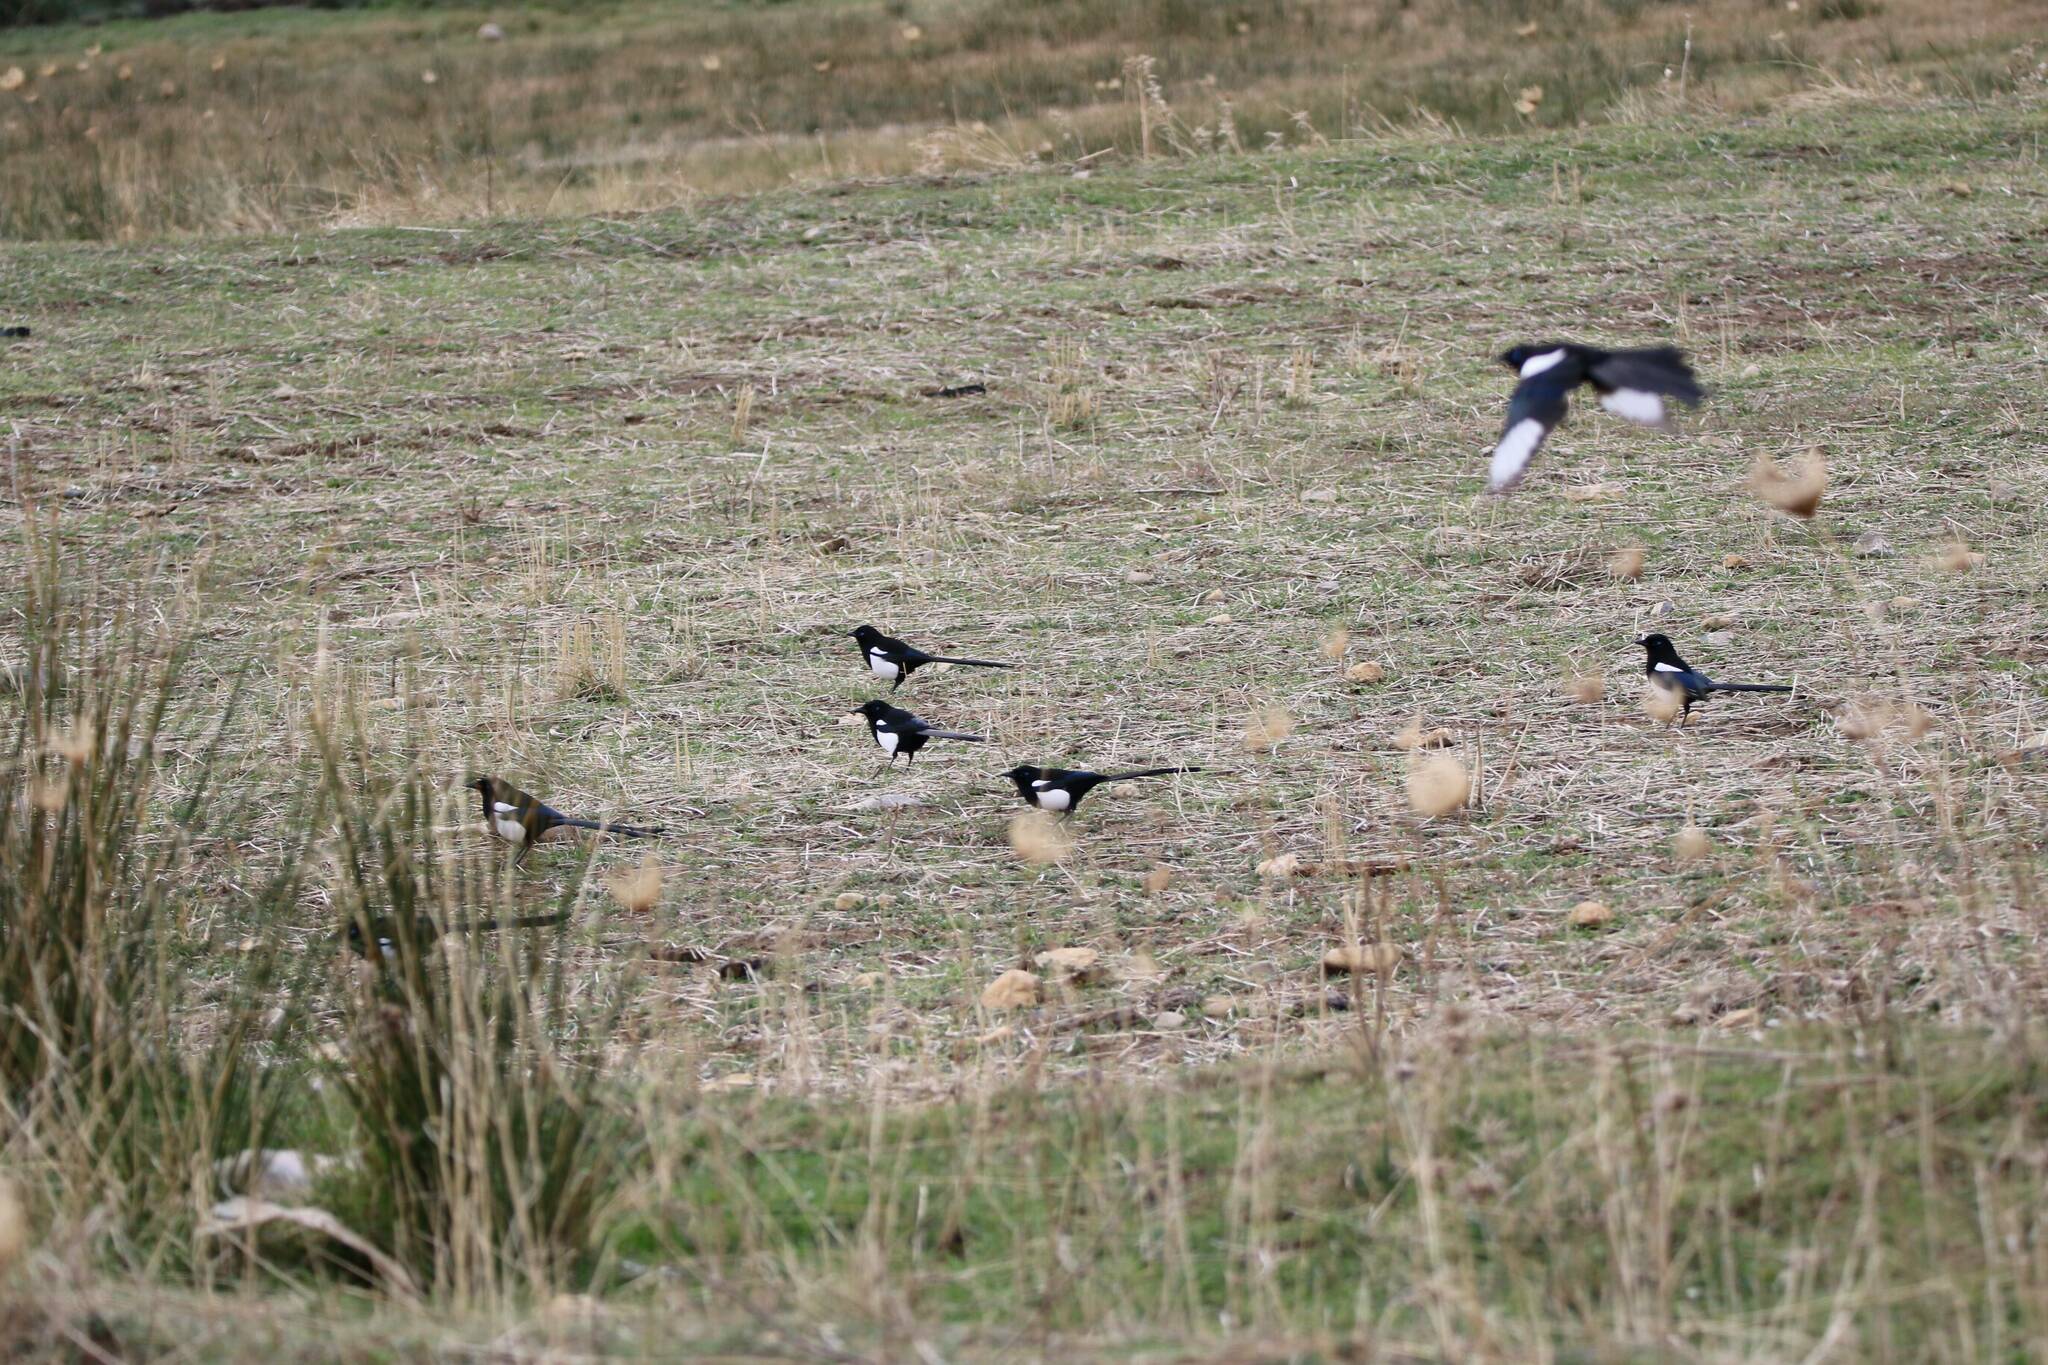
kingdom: Animalia
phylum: Chordata
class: Aves
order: Passeriformes
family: Corvidae
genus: Pica
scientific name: Pica mauritanica
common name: Maghreb magpie
